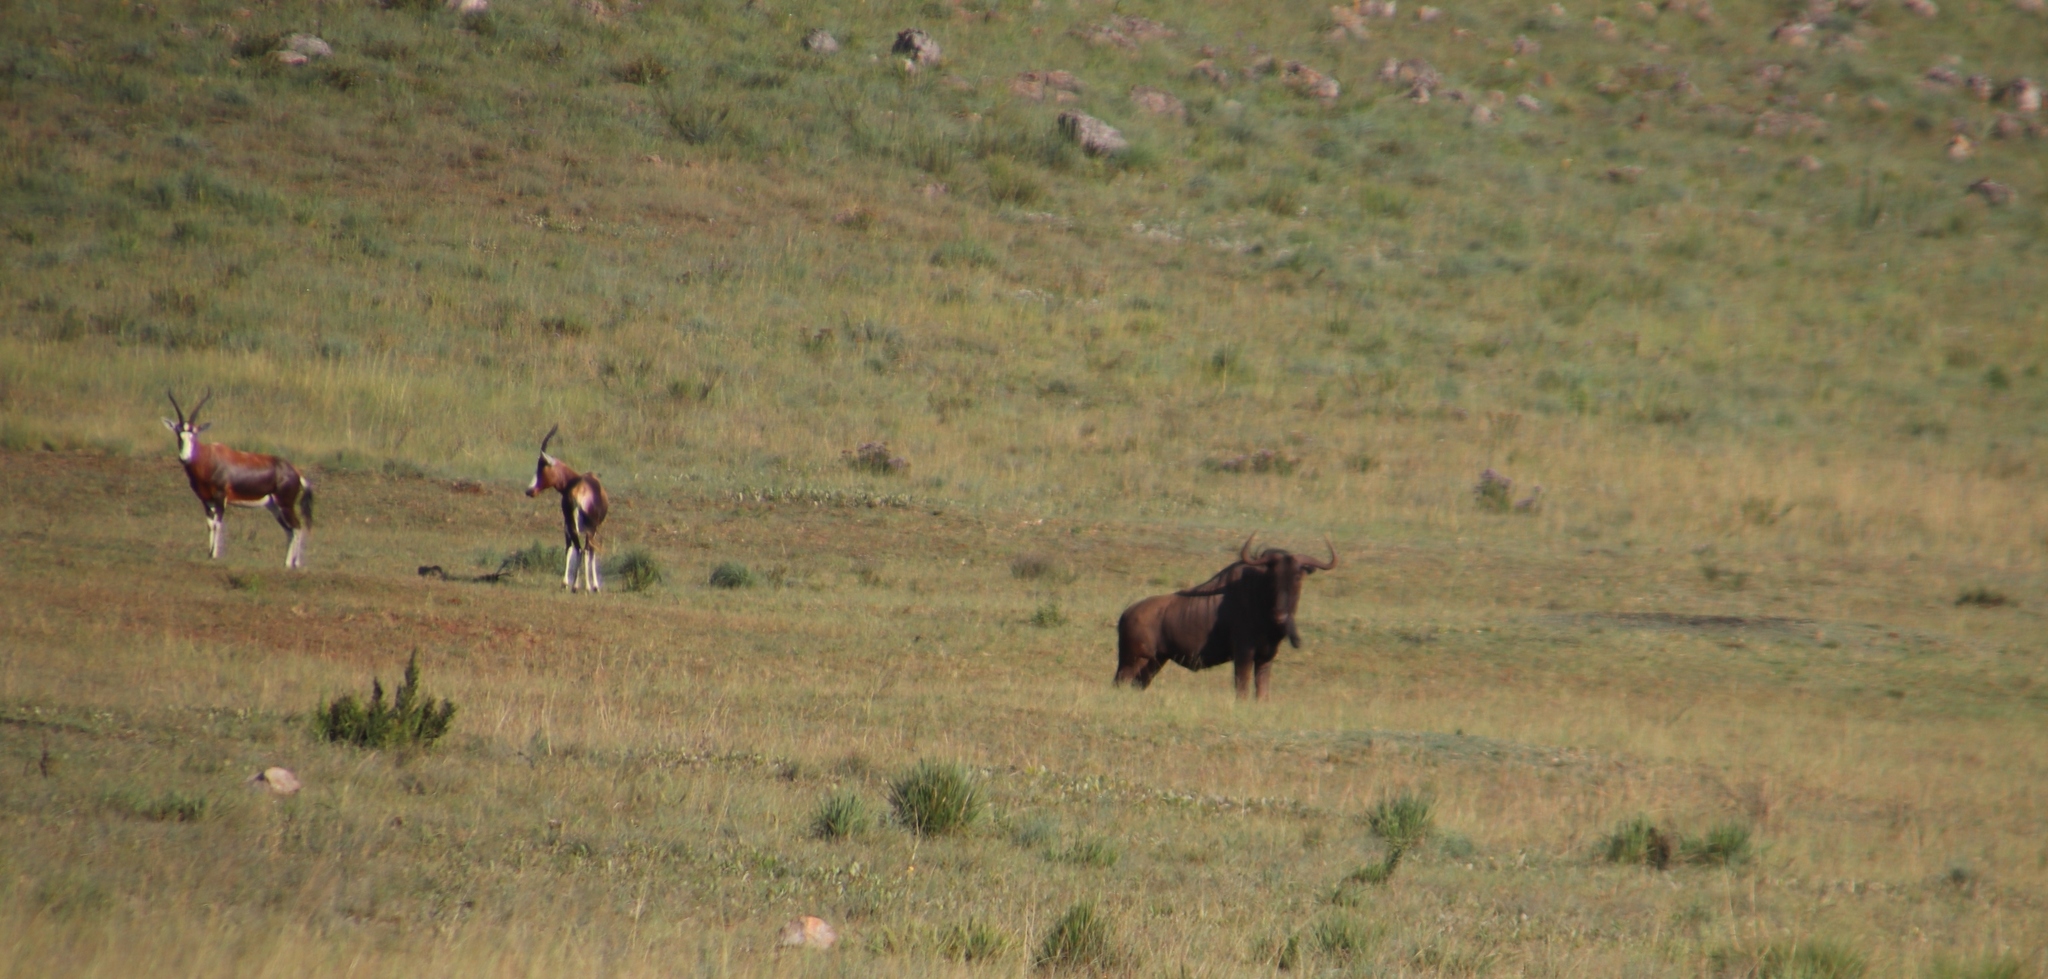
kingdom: Animalia
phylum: Chordata
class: Mammalia
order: Artiodactyla
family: Bovidae
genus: Connochaetes
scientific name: Connochaetes taurinus
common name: Blue wildebeest
